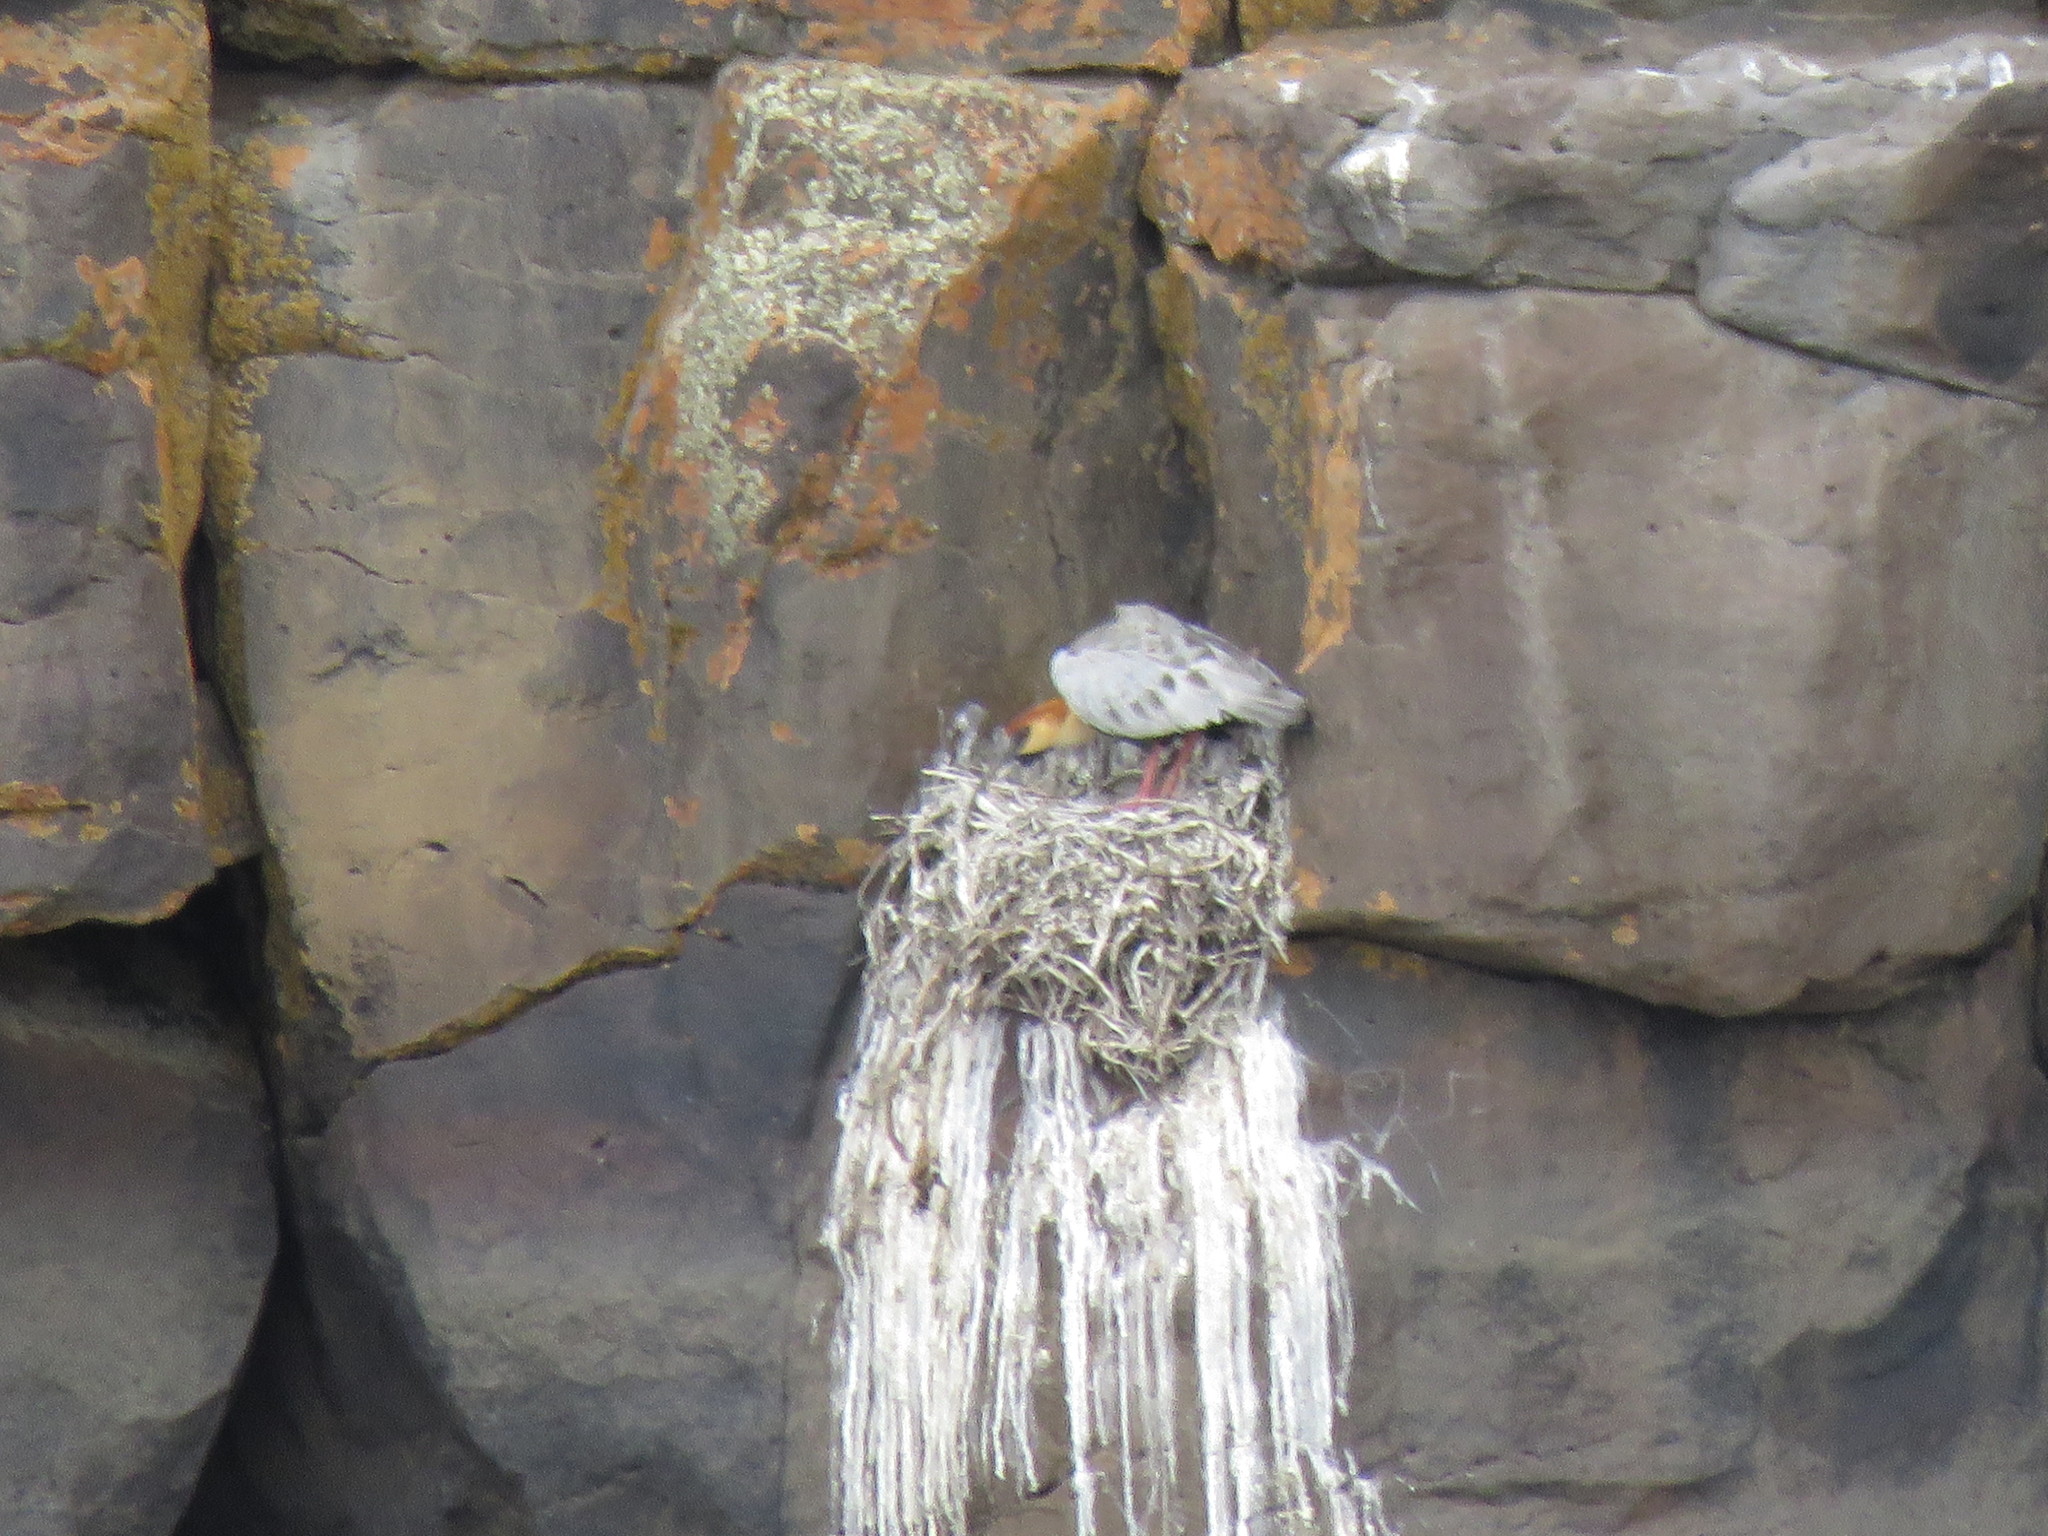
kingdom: Animalia
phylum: Chordata
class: Aves
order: Pelecaniformes
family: Threskiornithidae
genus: Theristicus
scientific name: Theristicus melanopis
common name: Black-faced ibis
